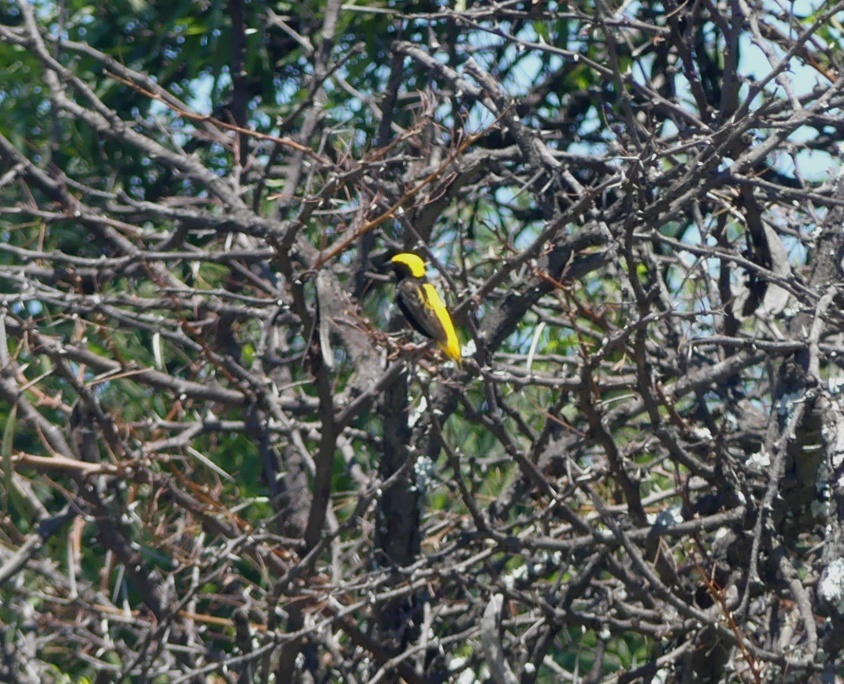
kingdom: Animalia
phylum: Chordata
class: Aves
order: Passeriformes
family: Ploceidae
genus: Euplectes
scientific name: Euplectes afer
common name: Yellow-crowned bishop
